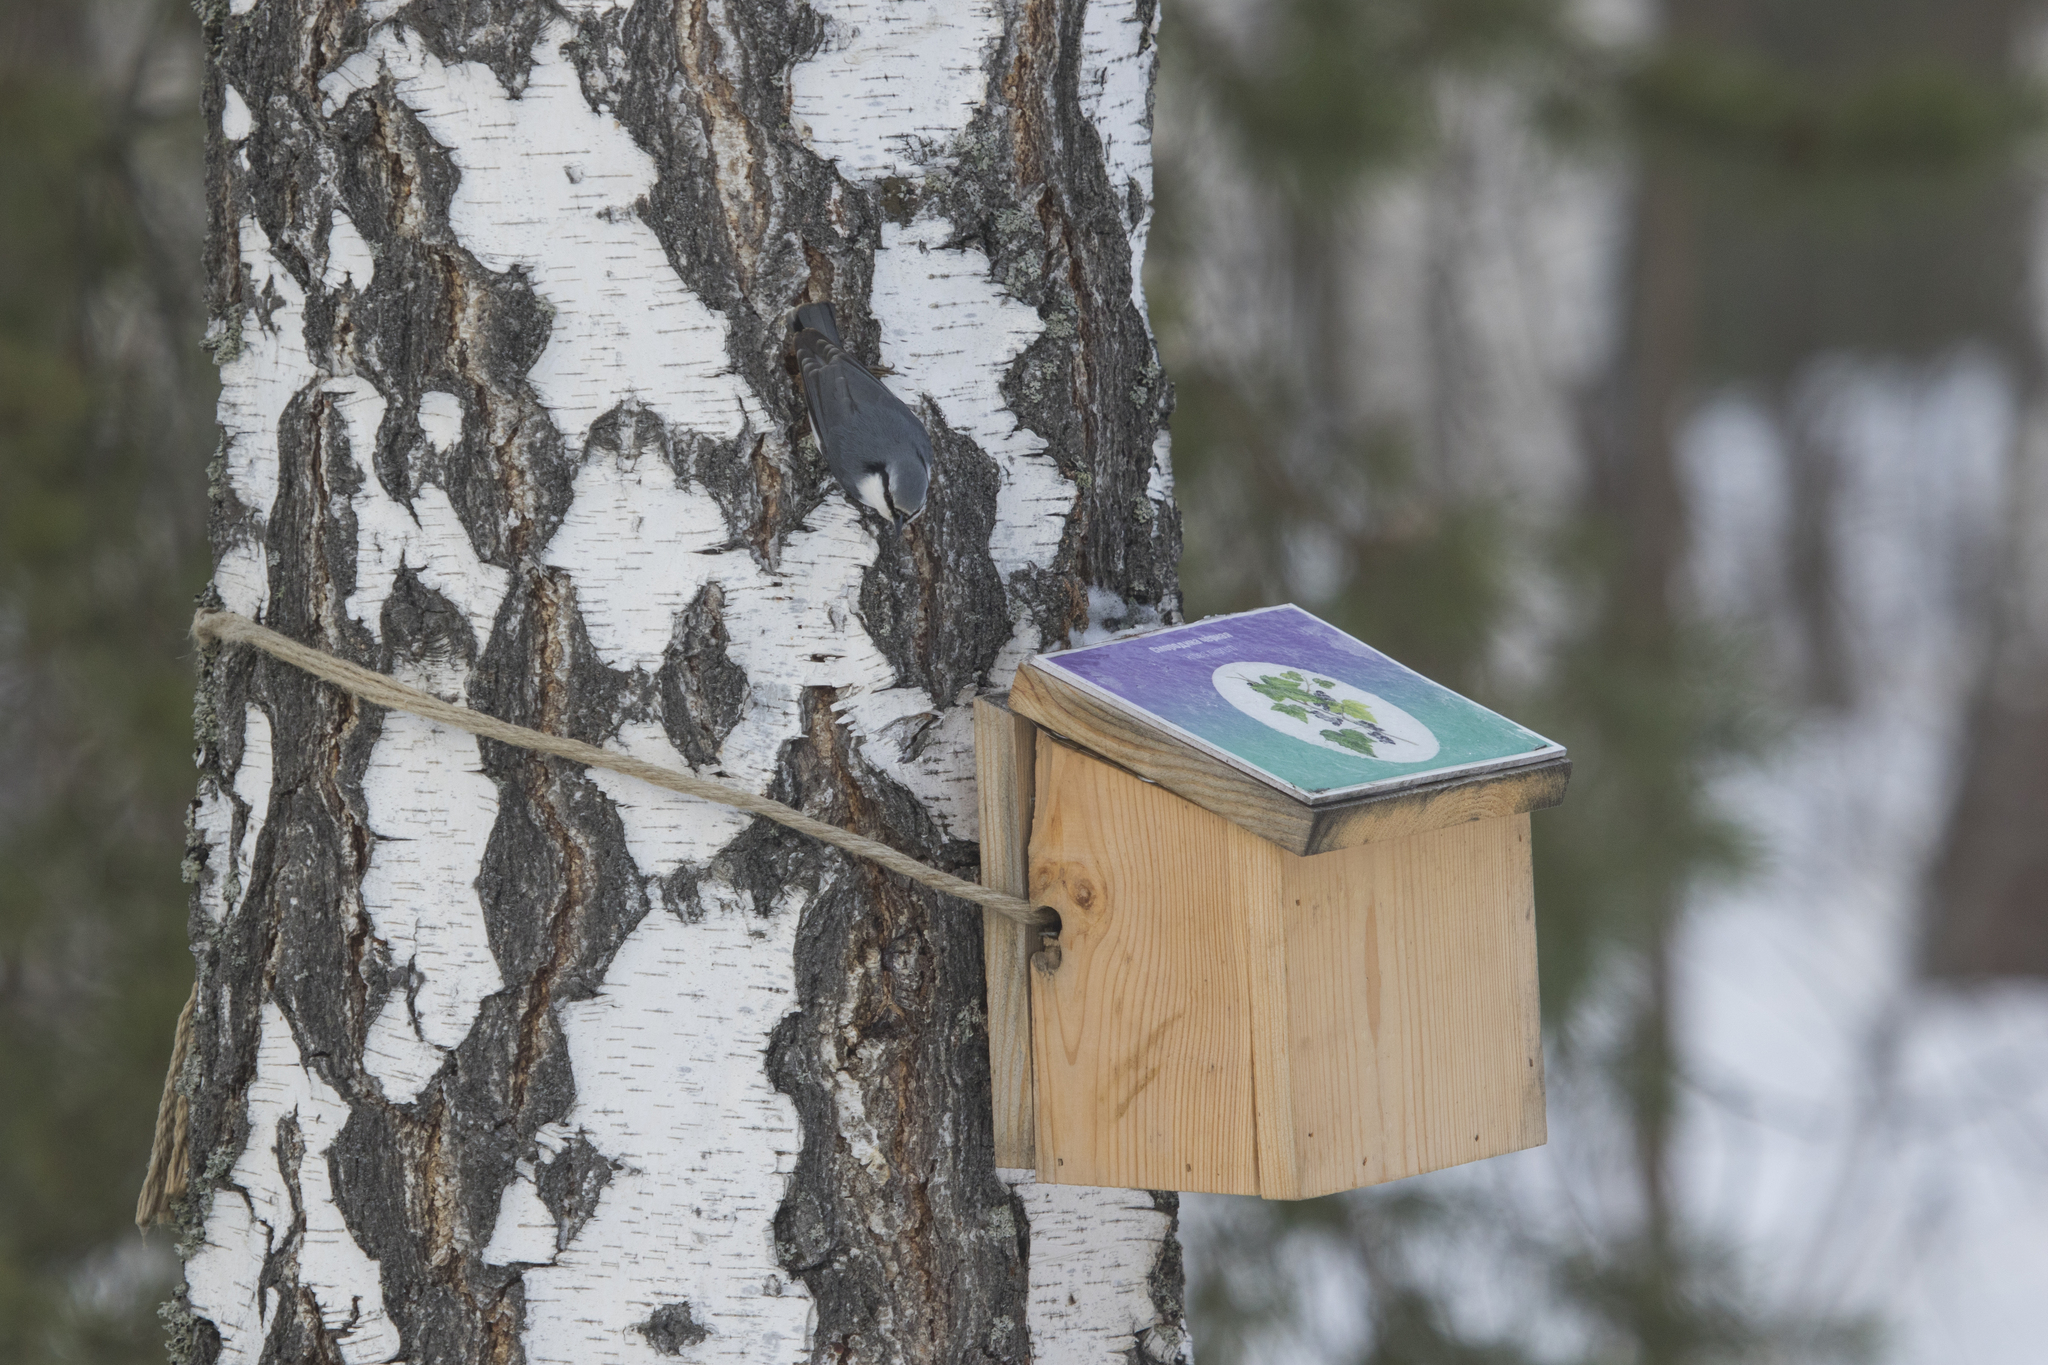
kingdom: Animalia
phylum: Chordata
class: Aves
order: Passeriformes
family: Sittidae
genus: Sitta
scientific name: Sitta europaea
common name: Eurasian nuthatch
